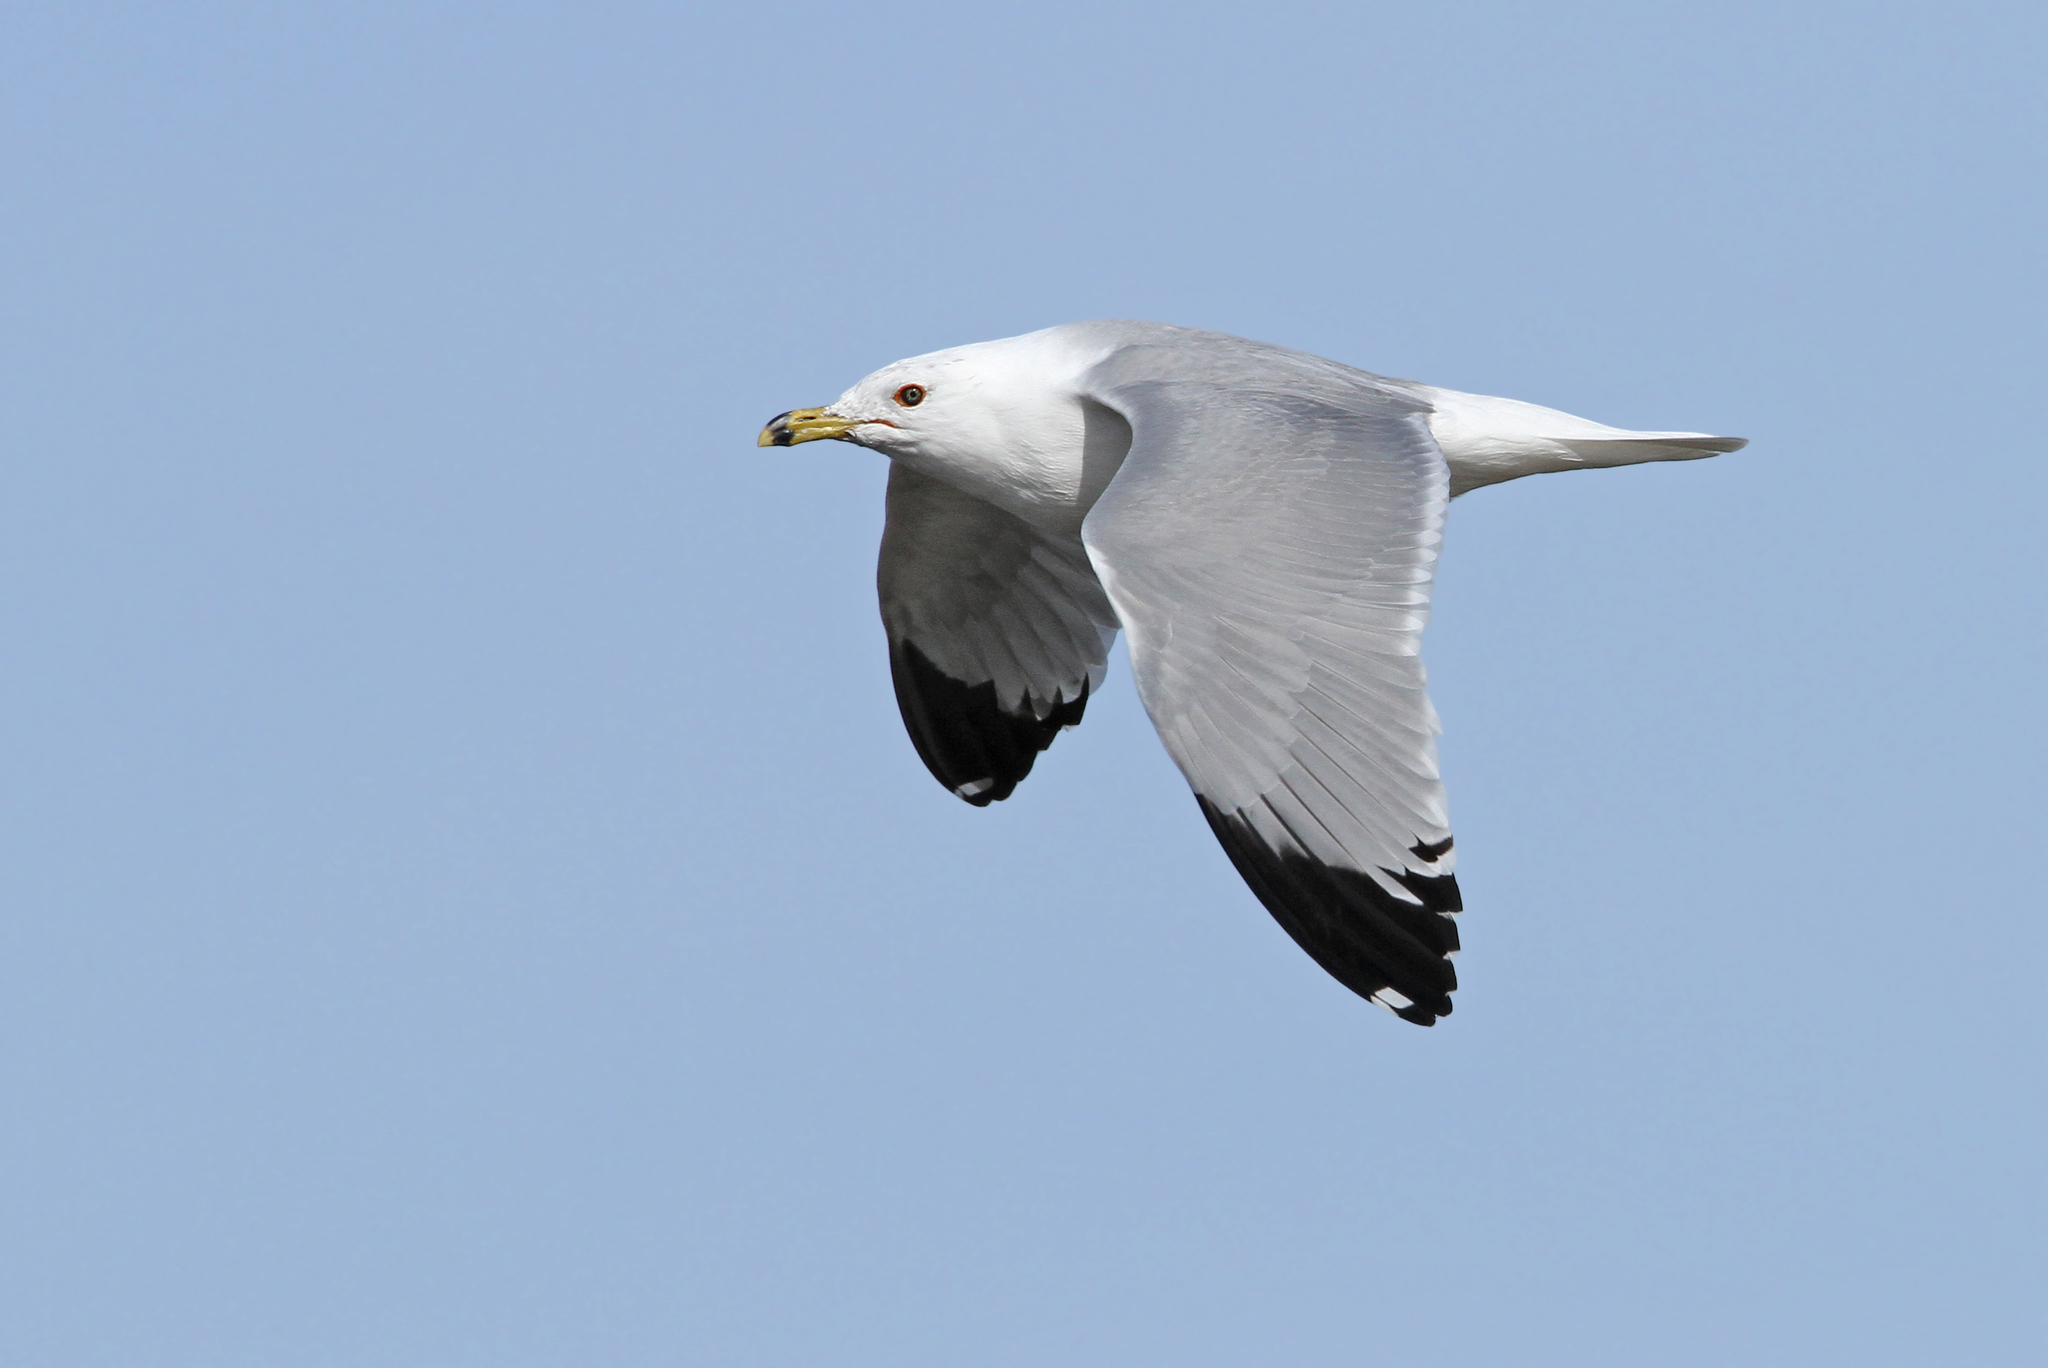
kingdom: Animalia
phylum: Chordata
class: Aves
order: Charadriiformes
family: Laridae
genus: Larus
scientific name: Larus delawarensis
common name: Ring-billed gull
